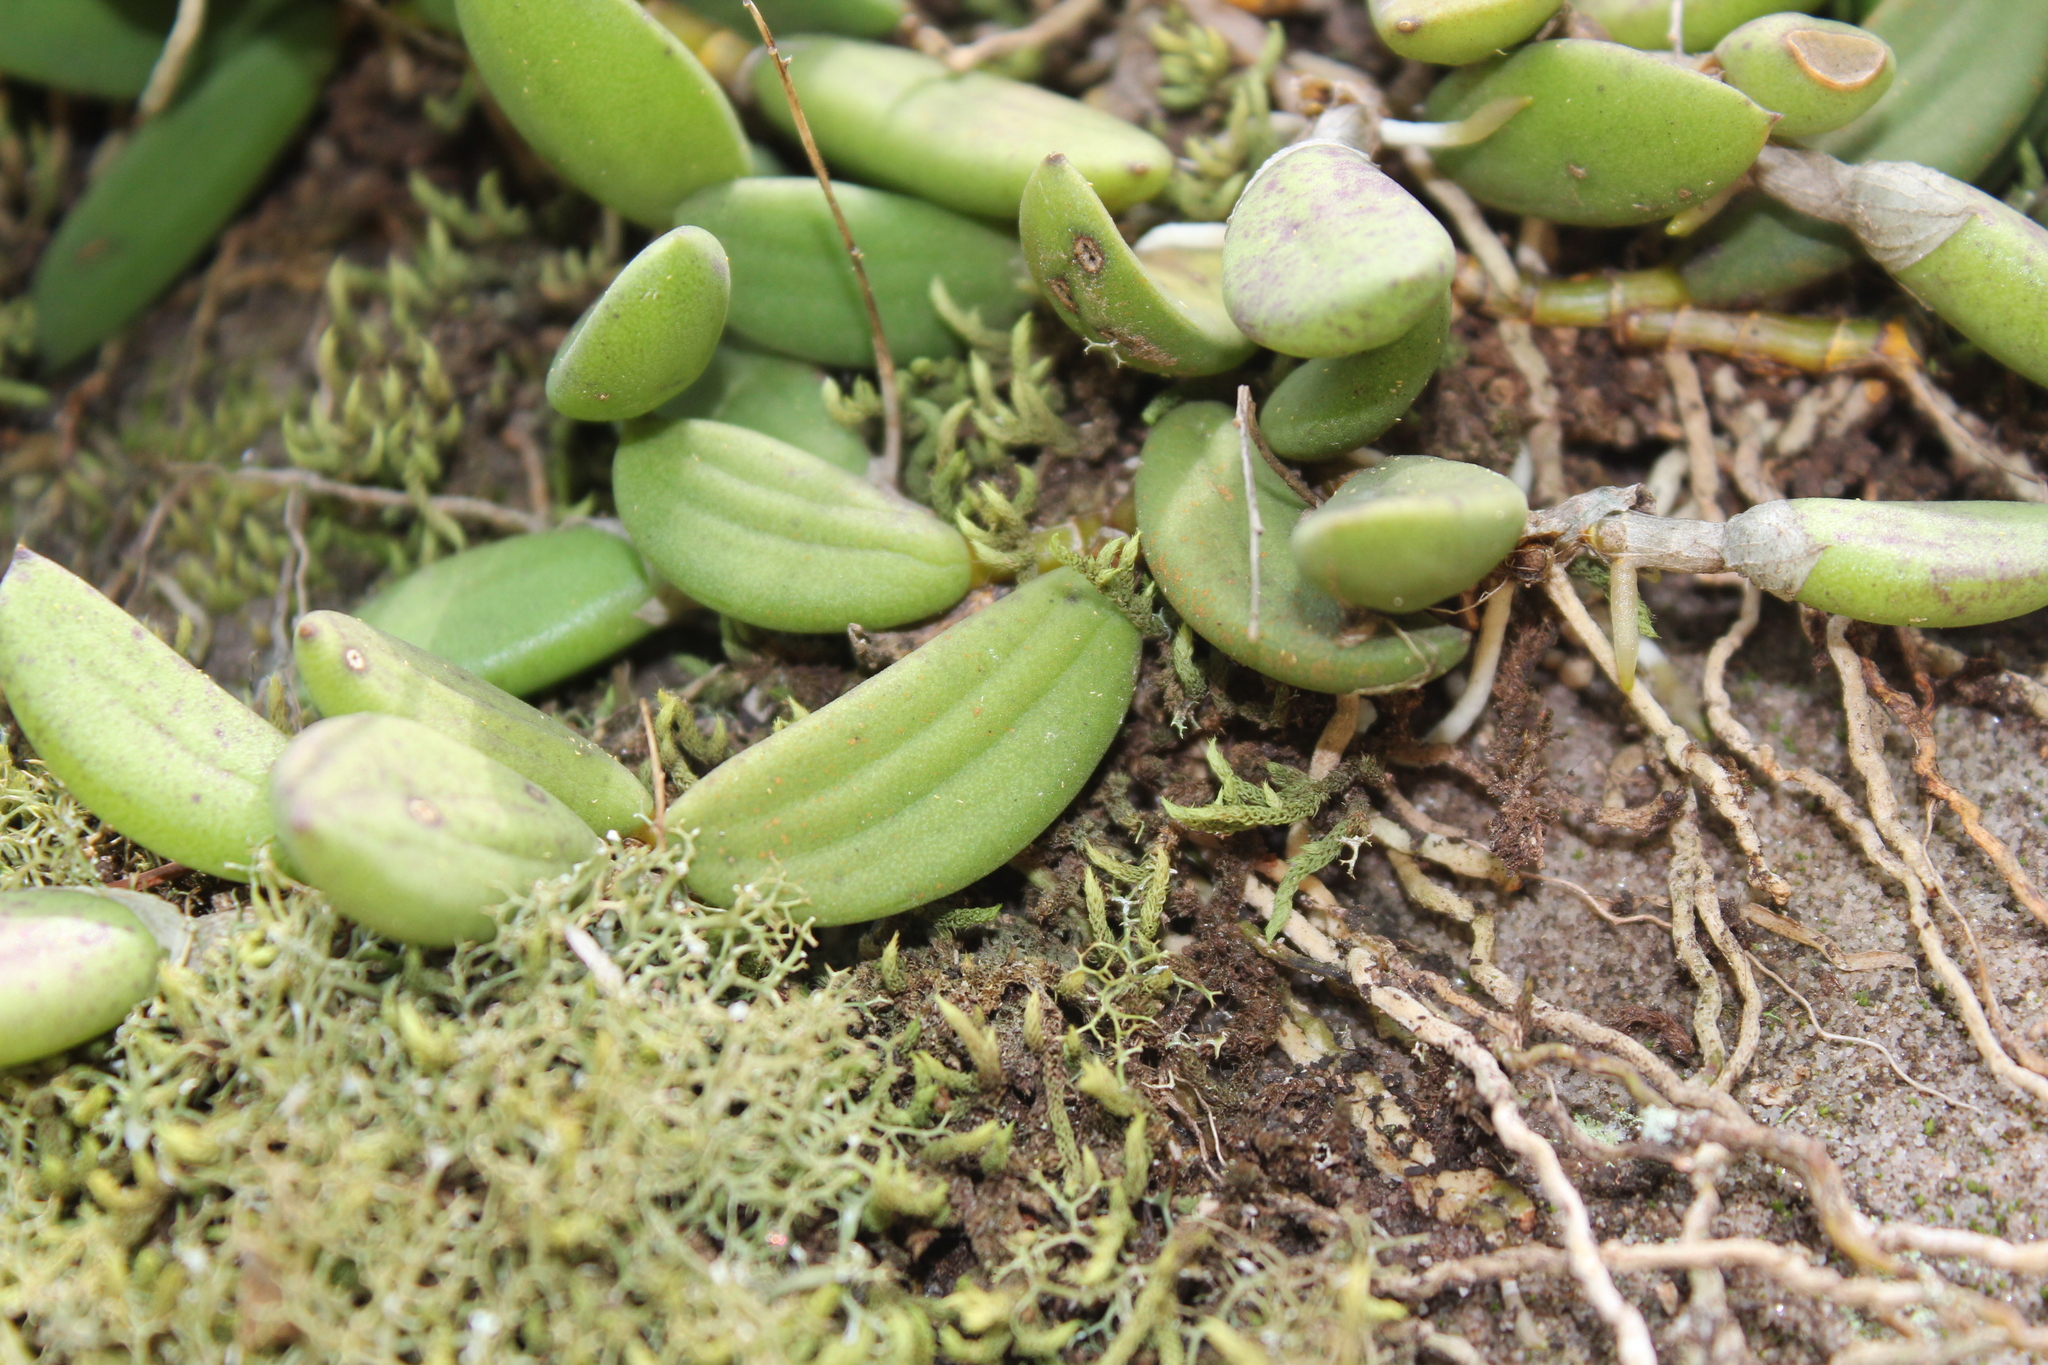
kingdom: Plantae
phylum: Tracheophyta
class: Liliopsida
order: Asparagales
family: Orchidaceae
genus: Dendrobium
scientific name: Dendrobium linguiforme
